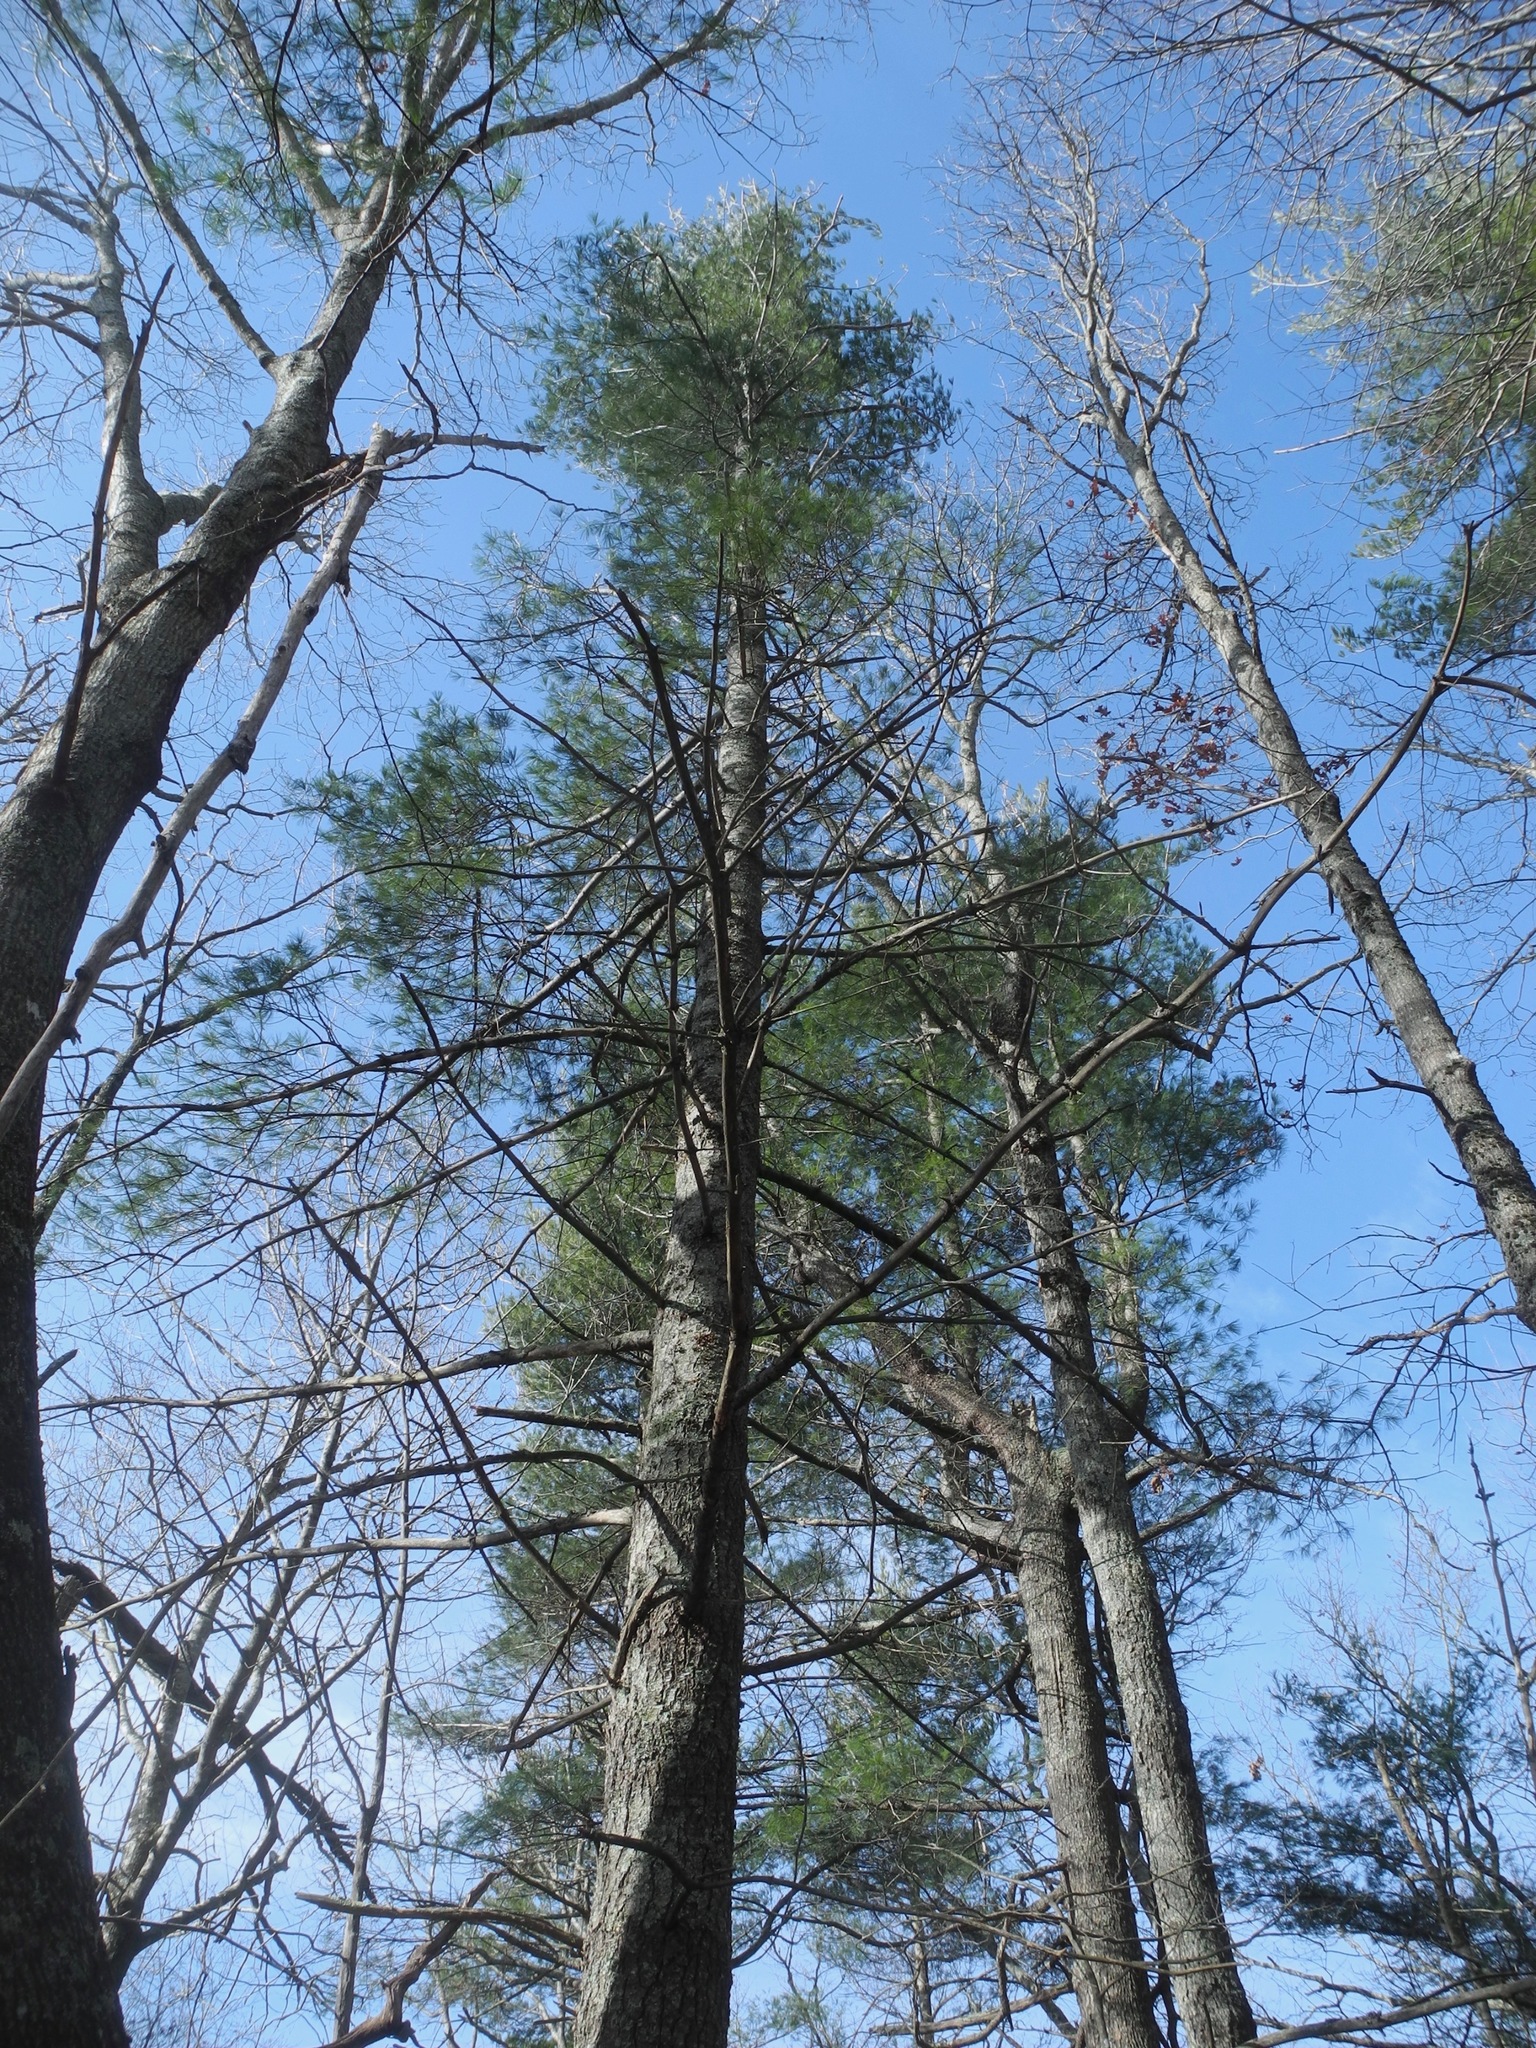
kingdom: Plantae
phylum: Tracheophyta
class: Pinopsida
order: Pinales
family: Pinaceae
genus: Pinus
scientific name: Pinus strobus
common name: Weymouth pine
